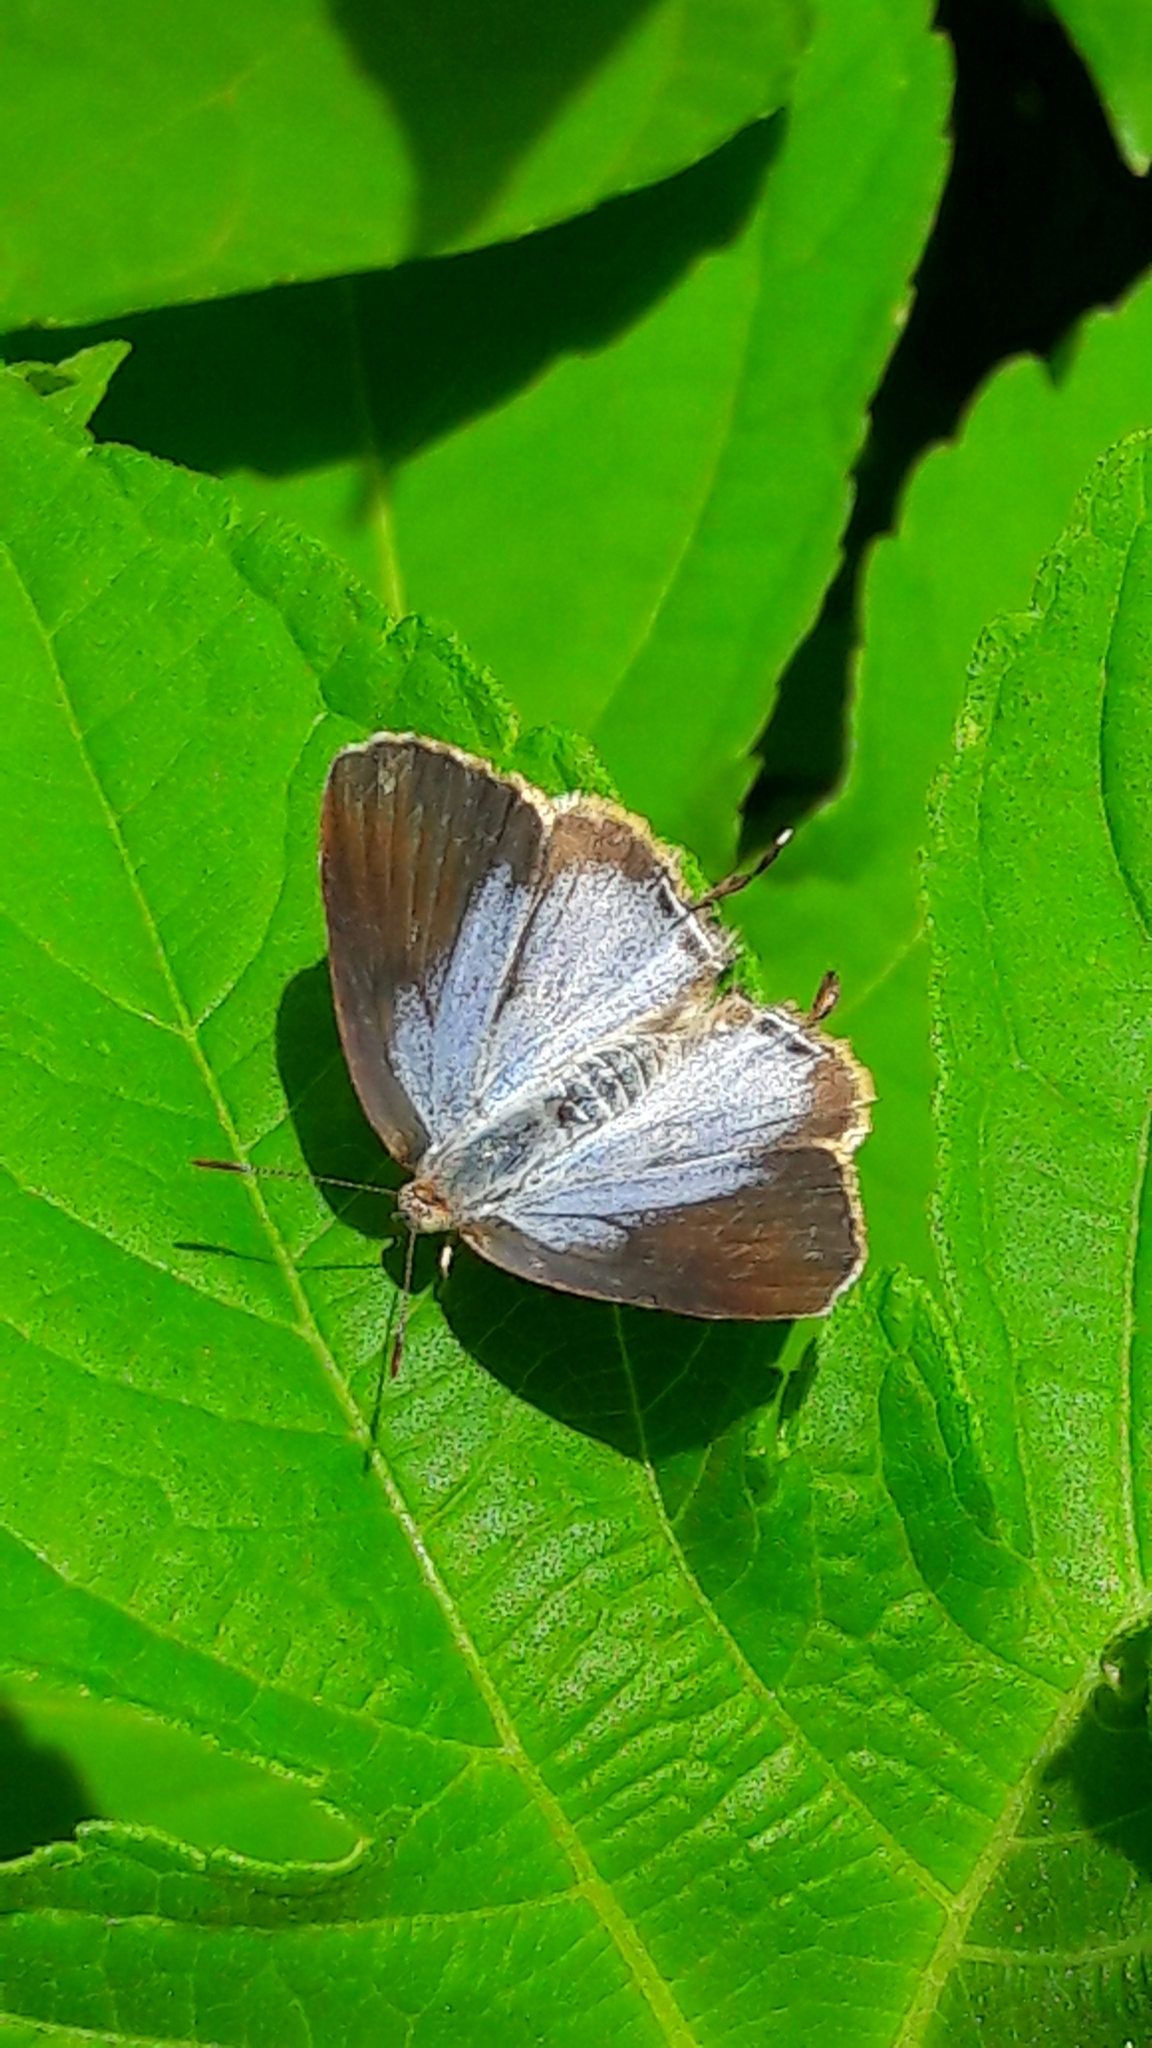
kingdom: Animalia
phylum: Arthropoda
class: Insecta
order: Lepidoptera
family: Lycaenidae
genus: Arawacus
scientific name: Arawacus ellida
